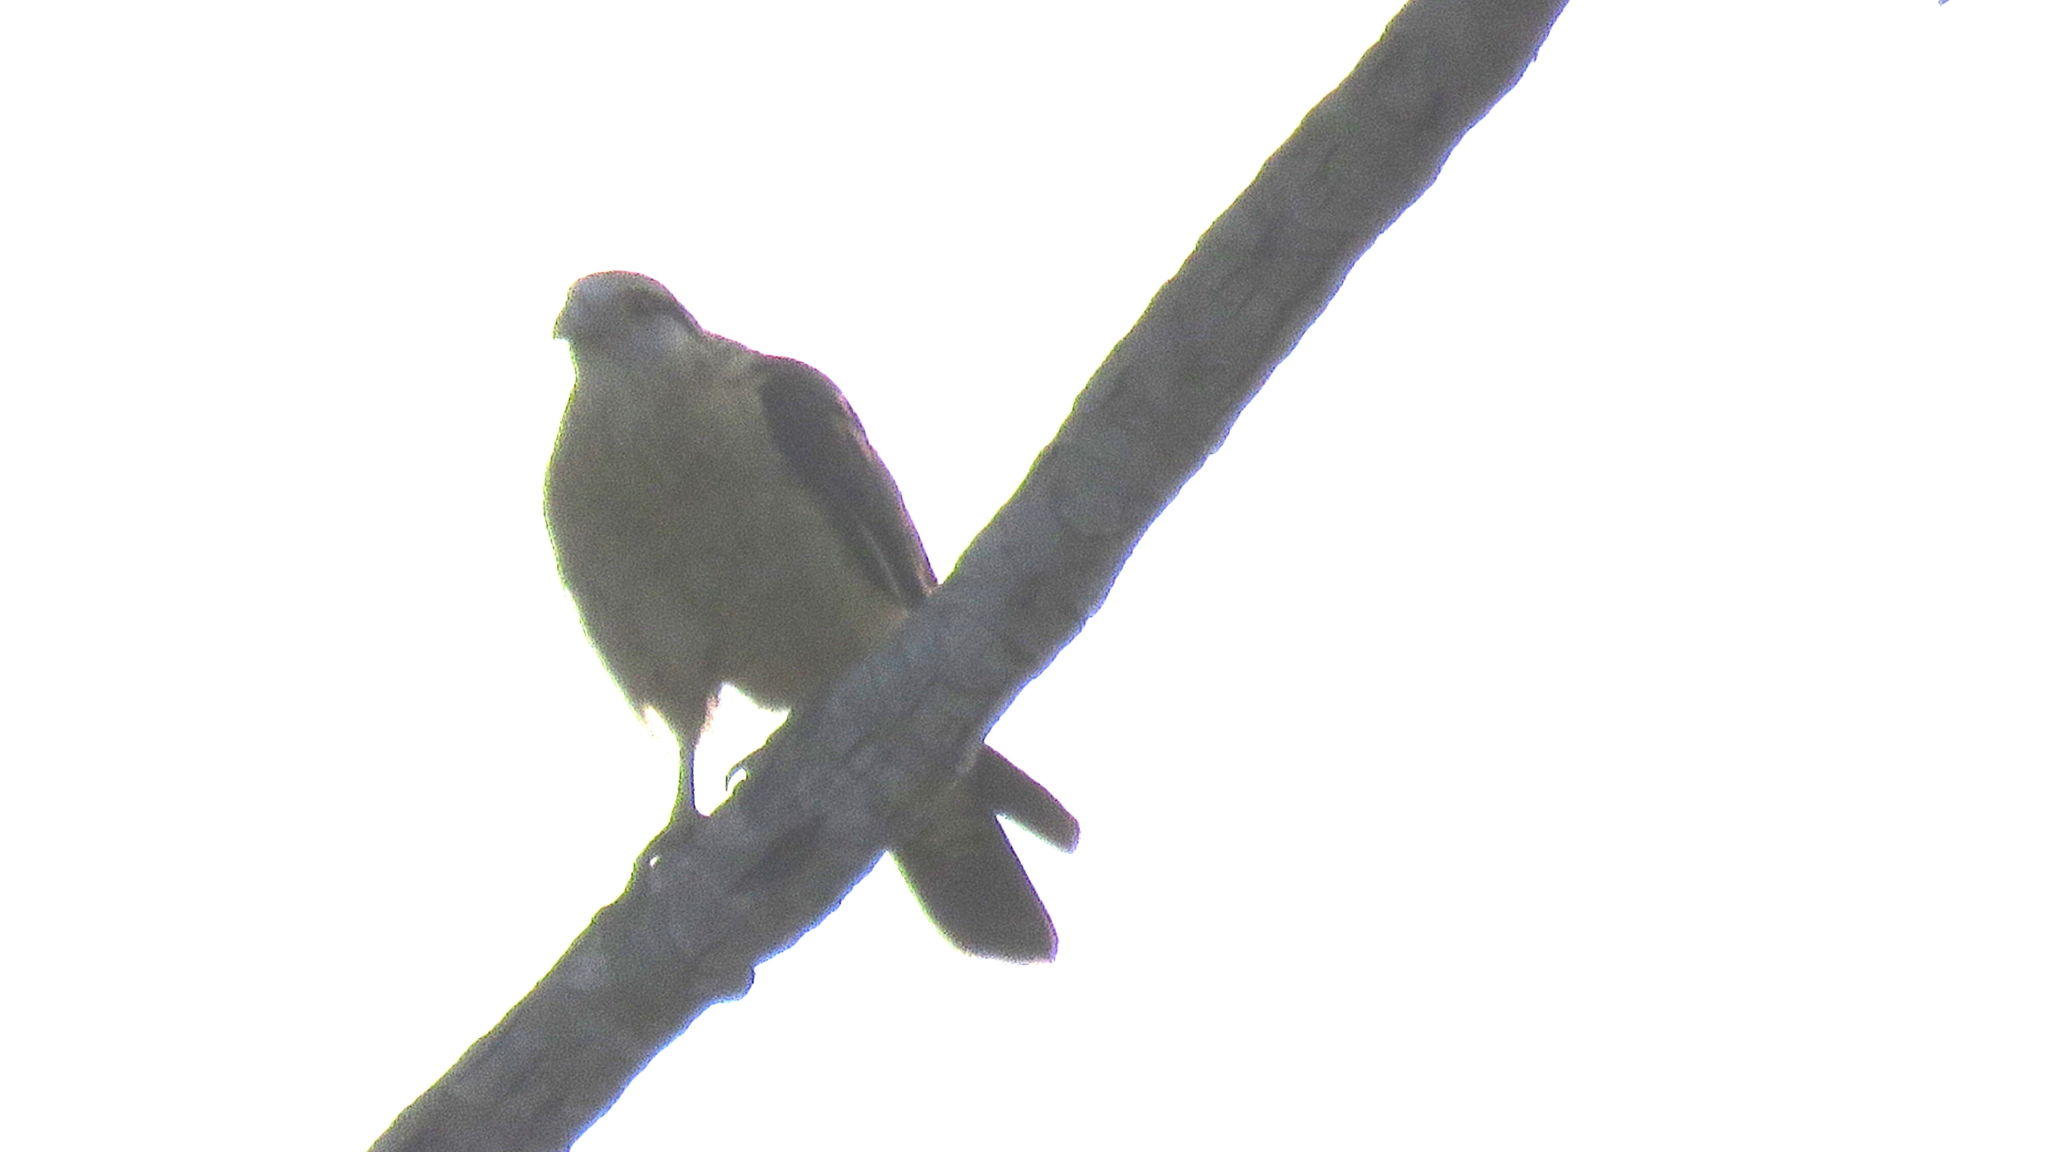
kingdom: Animalia
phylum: Chordata
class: Aves
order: Falconiformes
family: Falconidae
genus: Daptrius
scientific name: Daptrius
